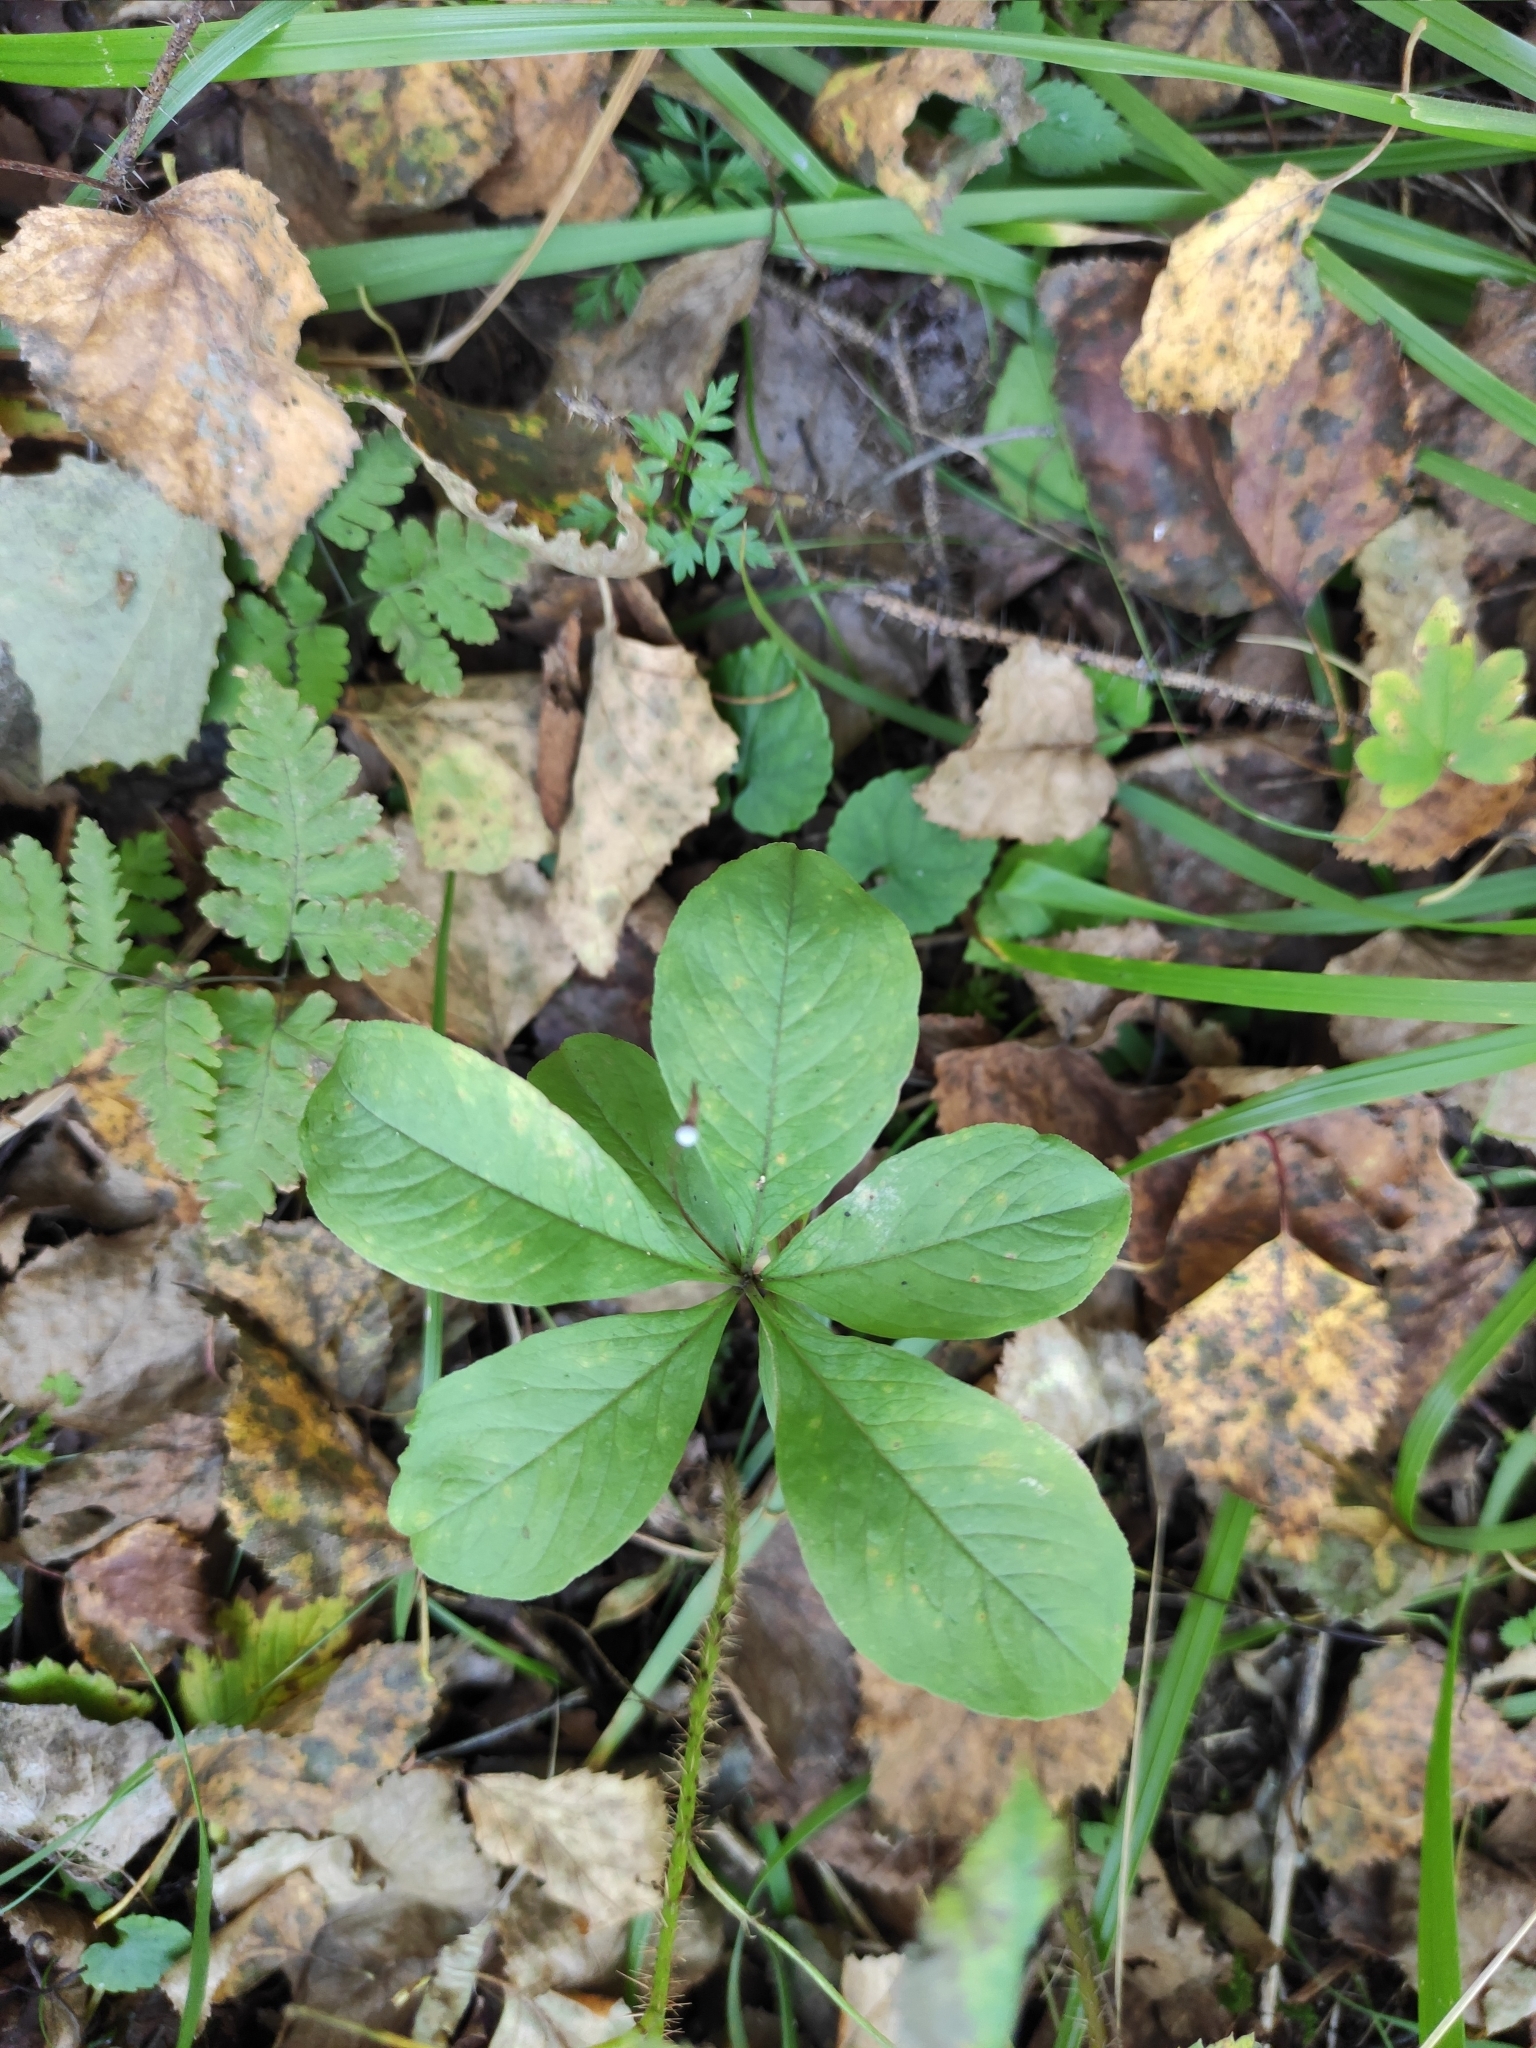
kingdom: Plantae
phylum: Tracheophyta
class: Magnoliopsida
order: Ericales
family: Primulaceae
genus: Lysimachia
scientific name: Lysimachia europaea
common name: Arctic starflower
